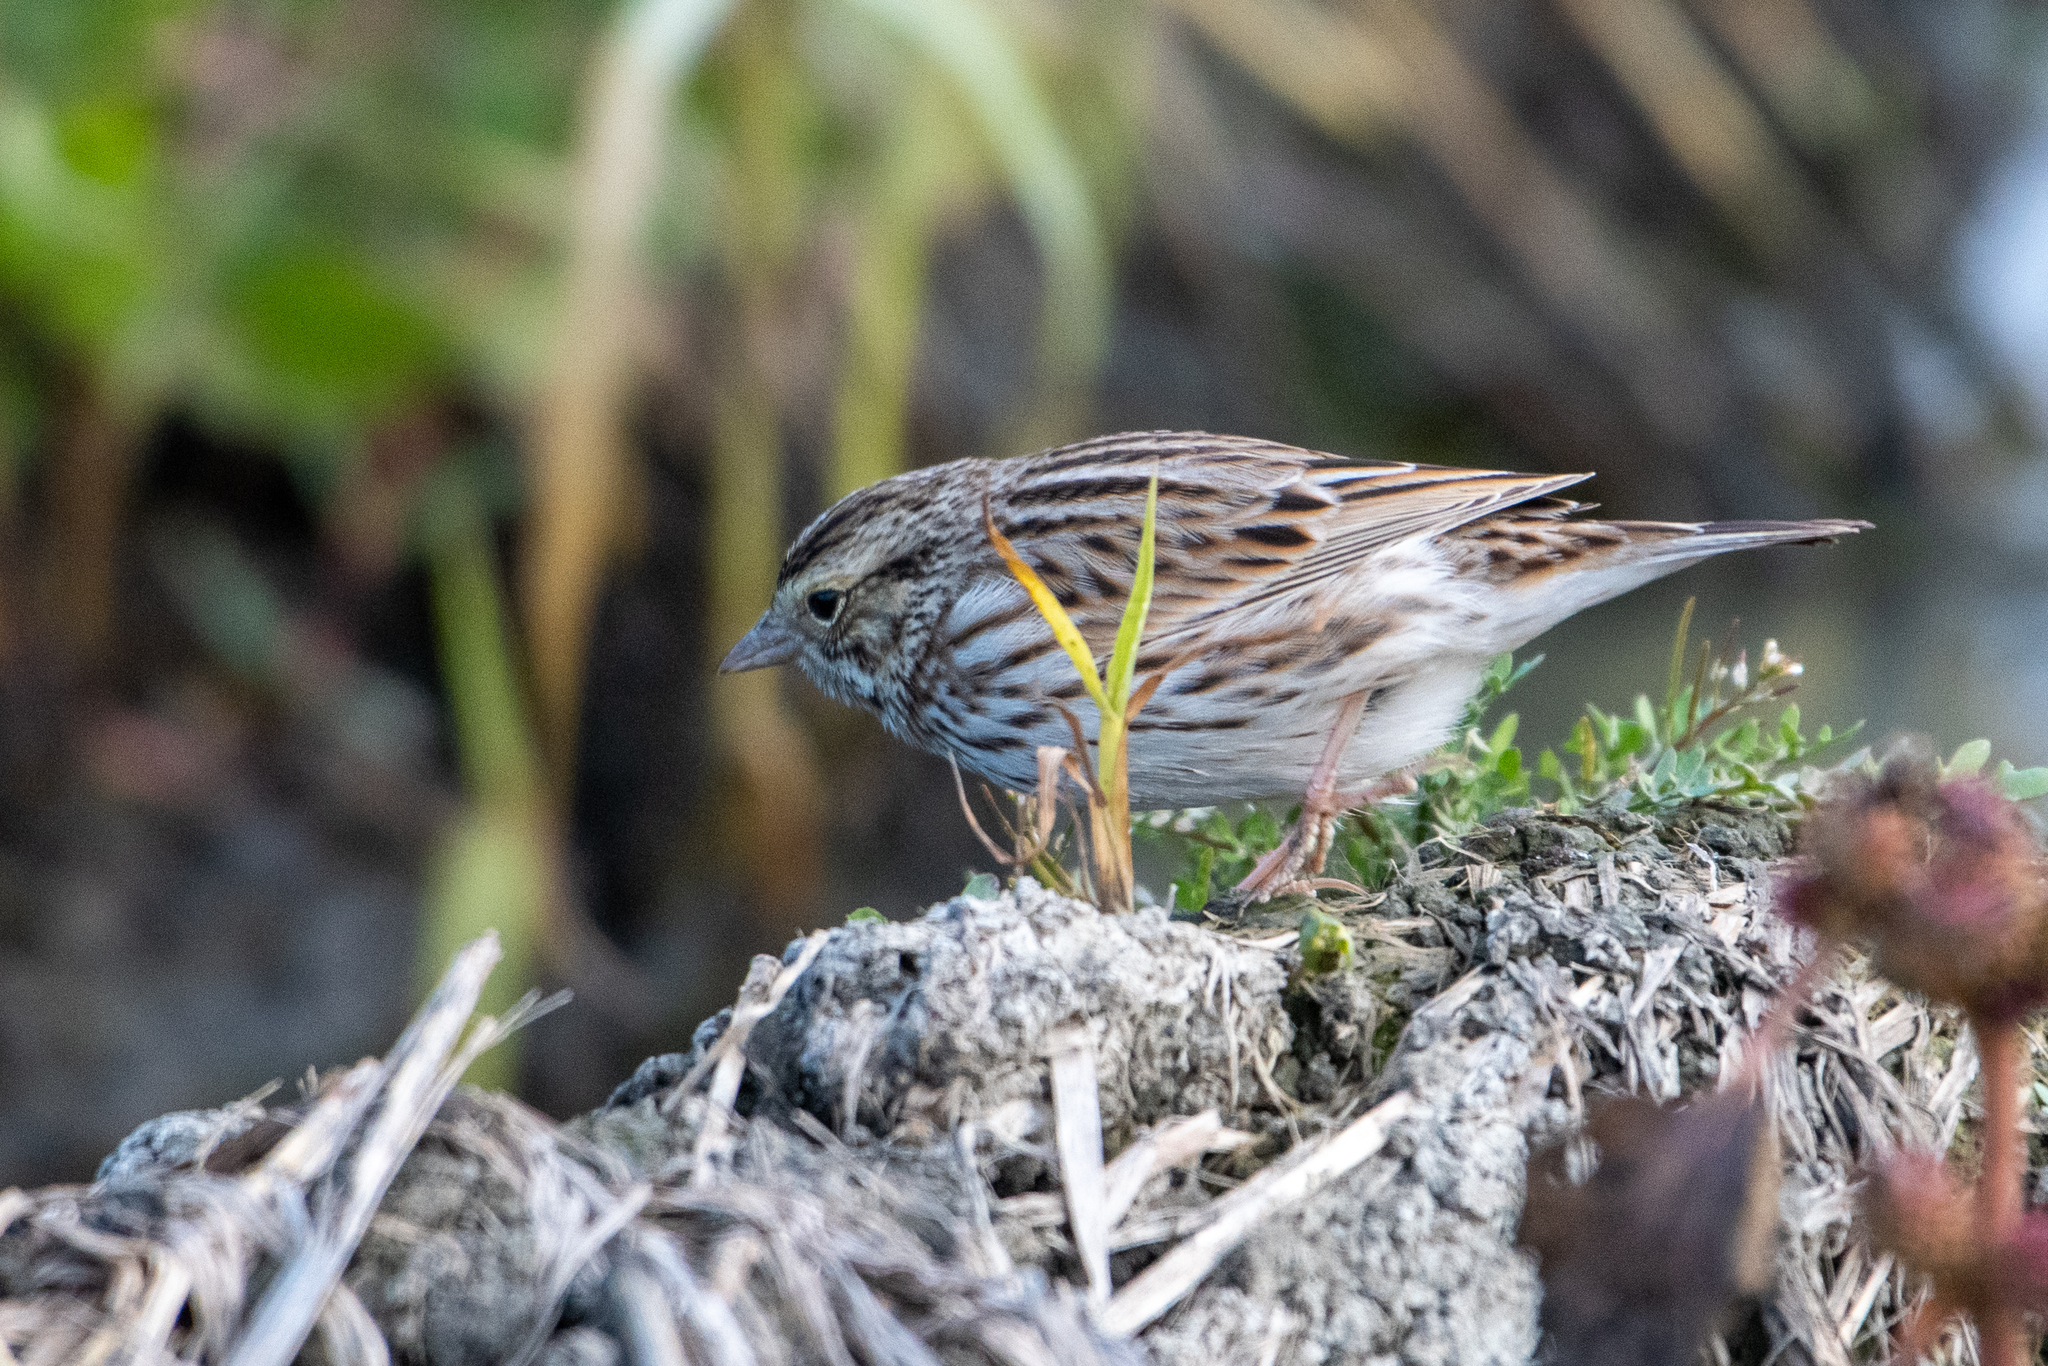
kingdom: Animalia
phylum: Chordata
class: Aves
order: Passeriformes
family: Passerellidae
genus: Passerculus
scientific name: Passerculus sandwichensis
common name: Savannah sparrow
